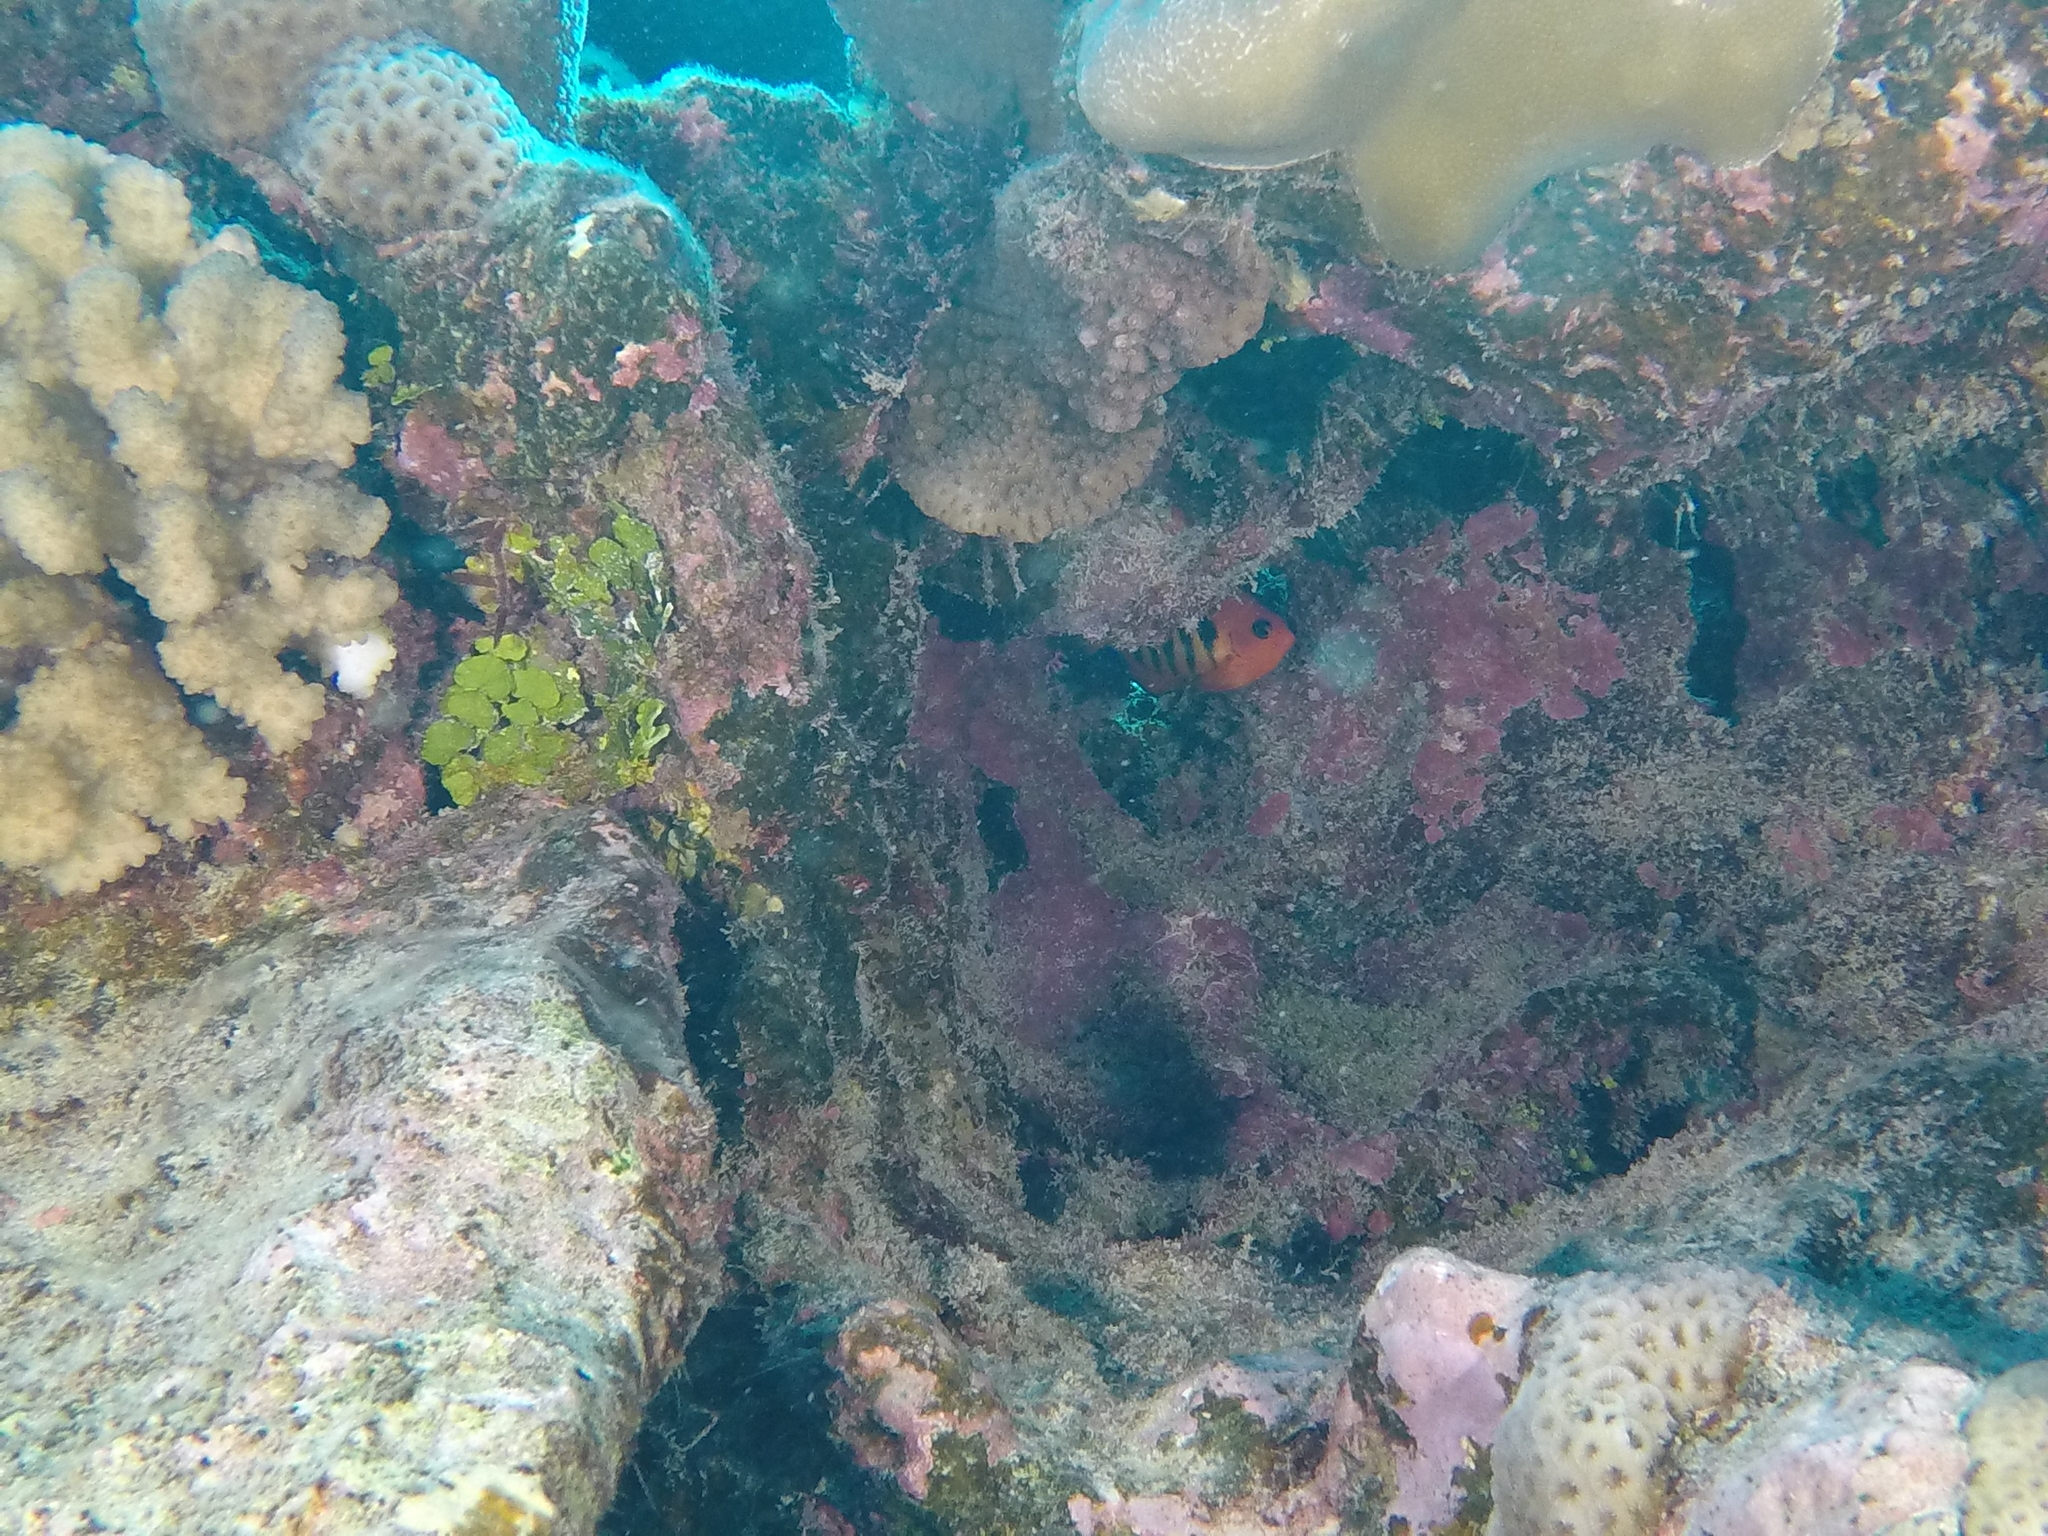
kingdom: Animalia
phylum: Chordata
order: Perciformes
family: Pomacanthidae
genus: Centropyge
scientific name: Centropyge loriculus
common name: Flame angelfish
